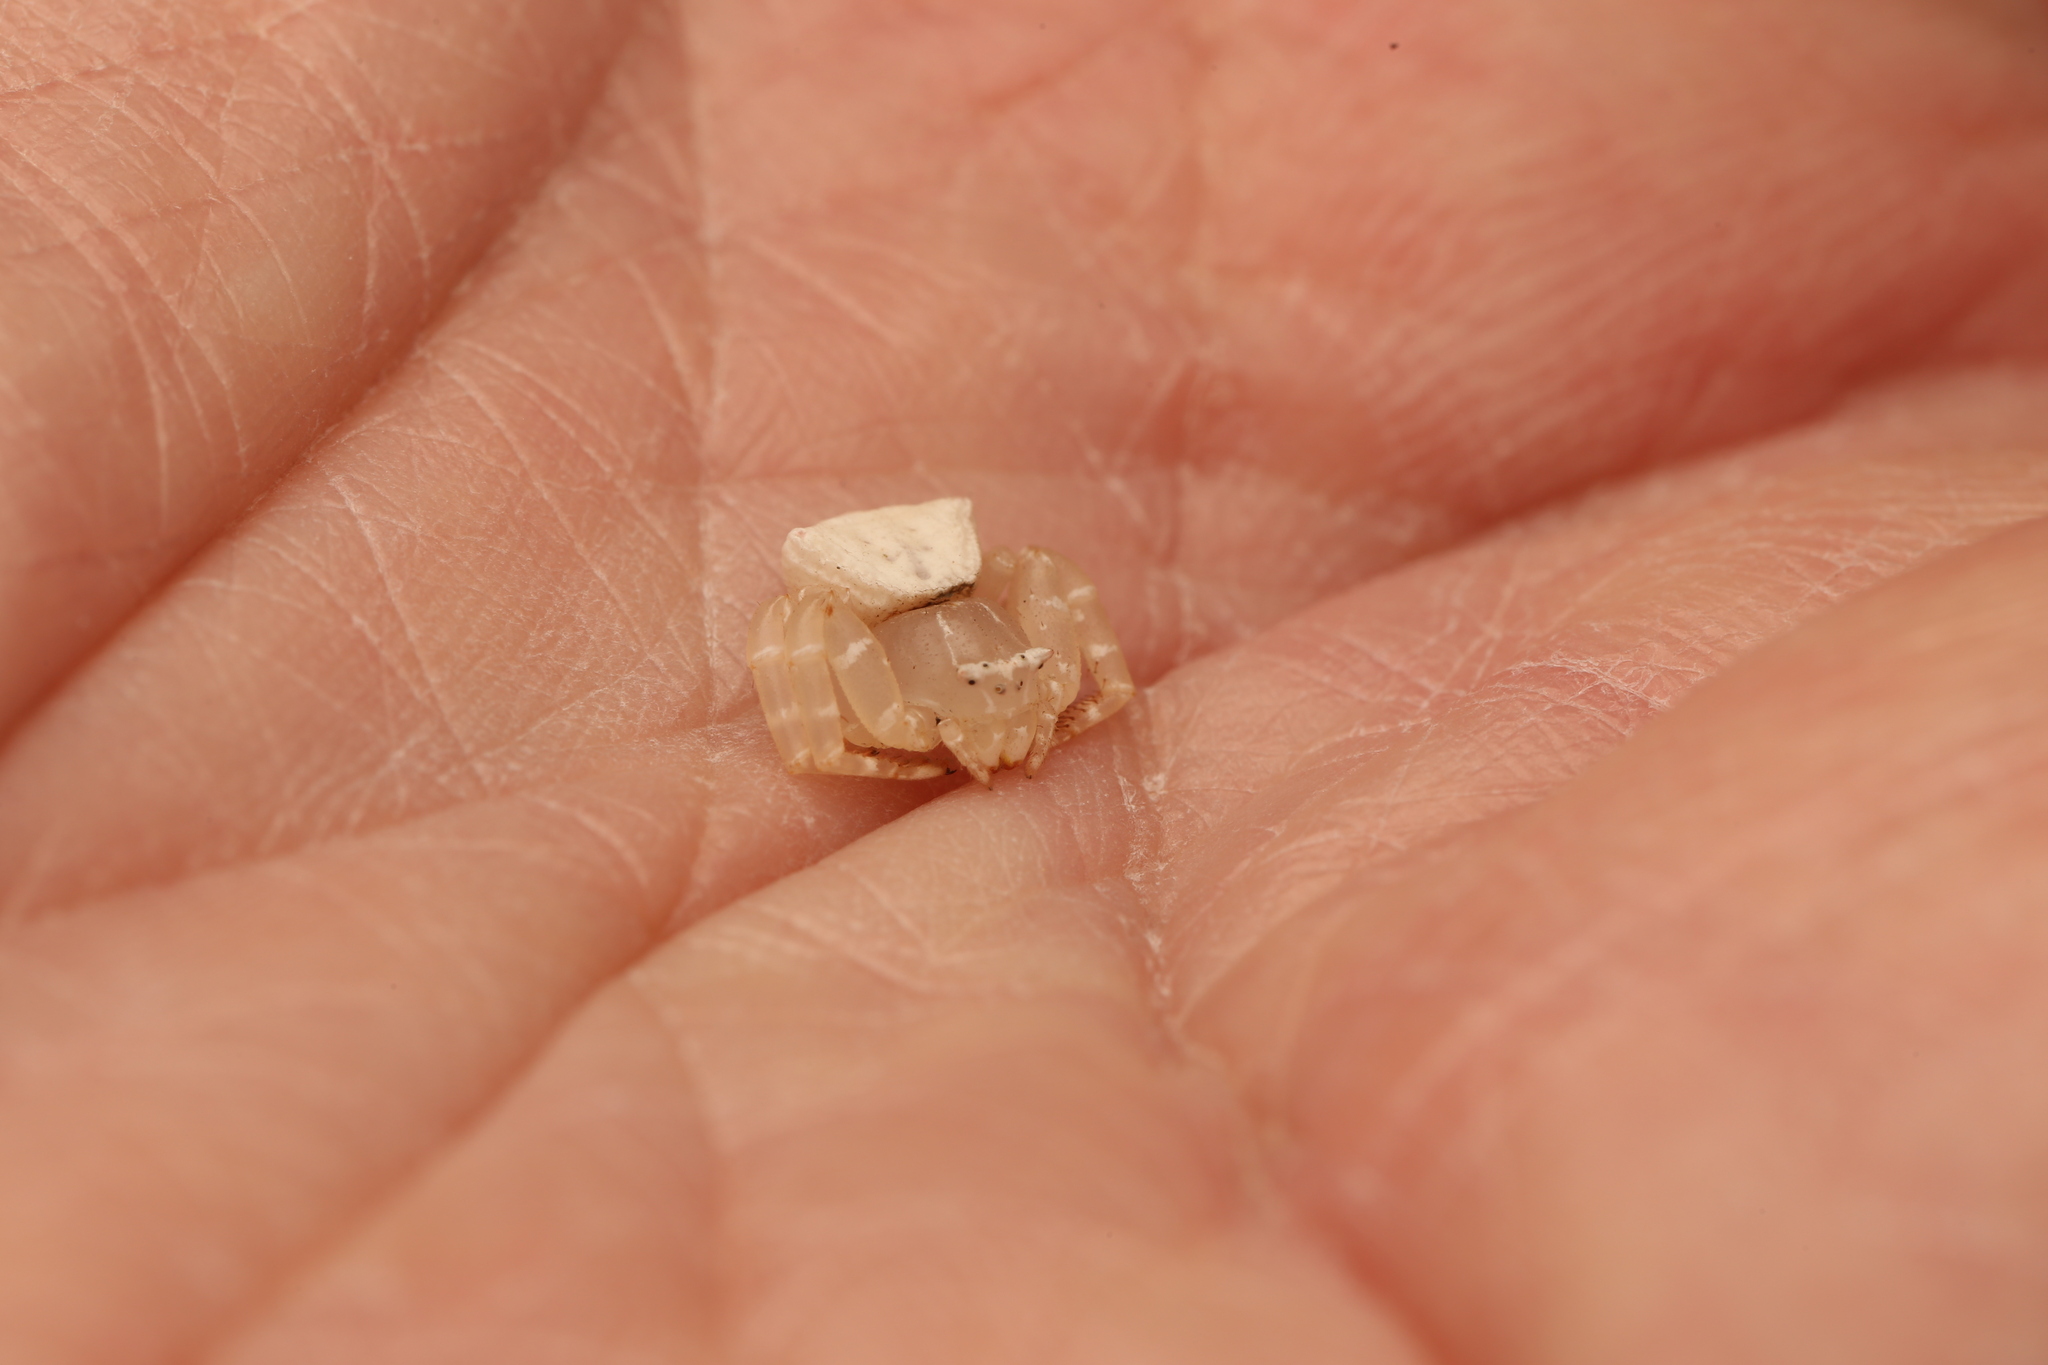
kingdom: Animalia
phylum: Arthropoda
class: Arachnida
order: Araneae
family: Thomisidae
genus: Thomisus
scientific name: Thomisus spectabilis
